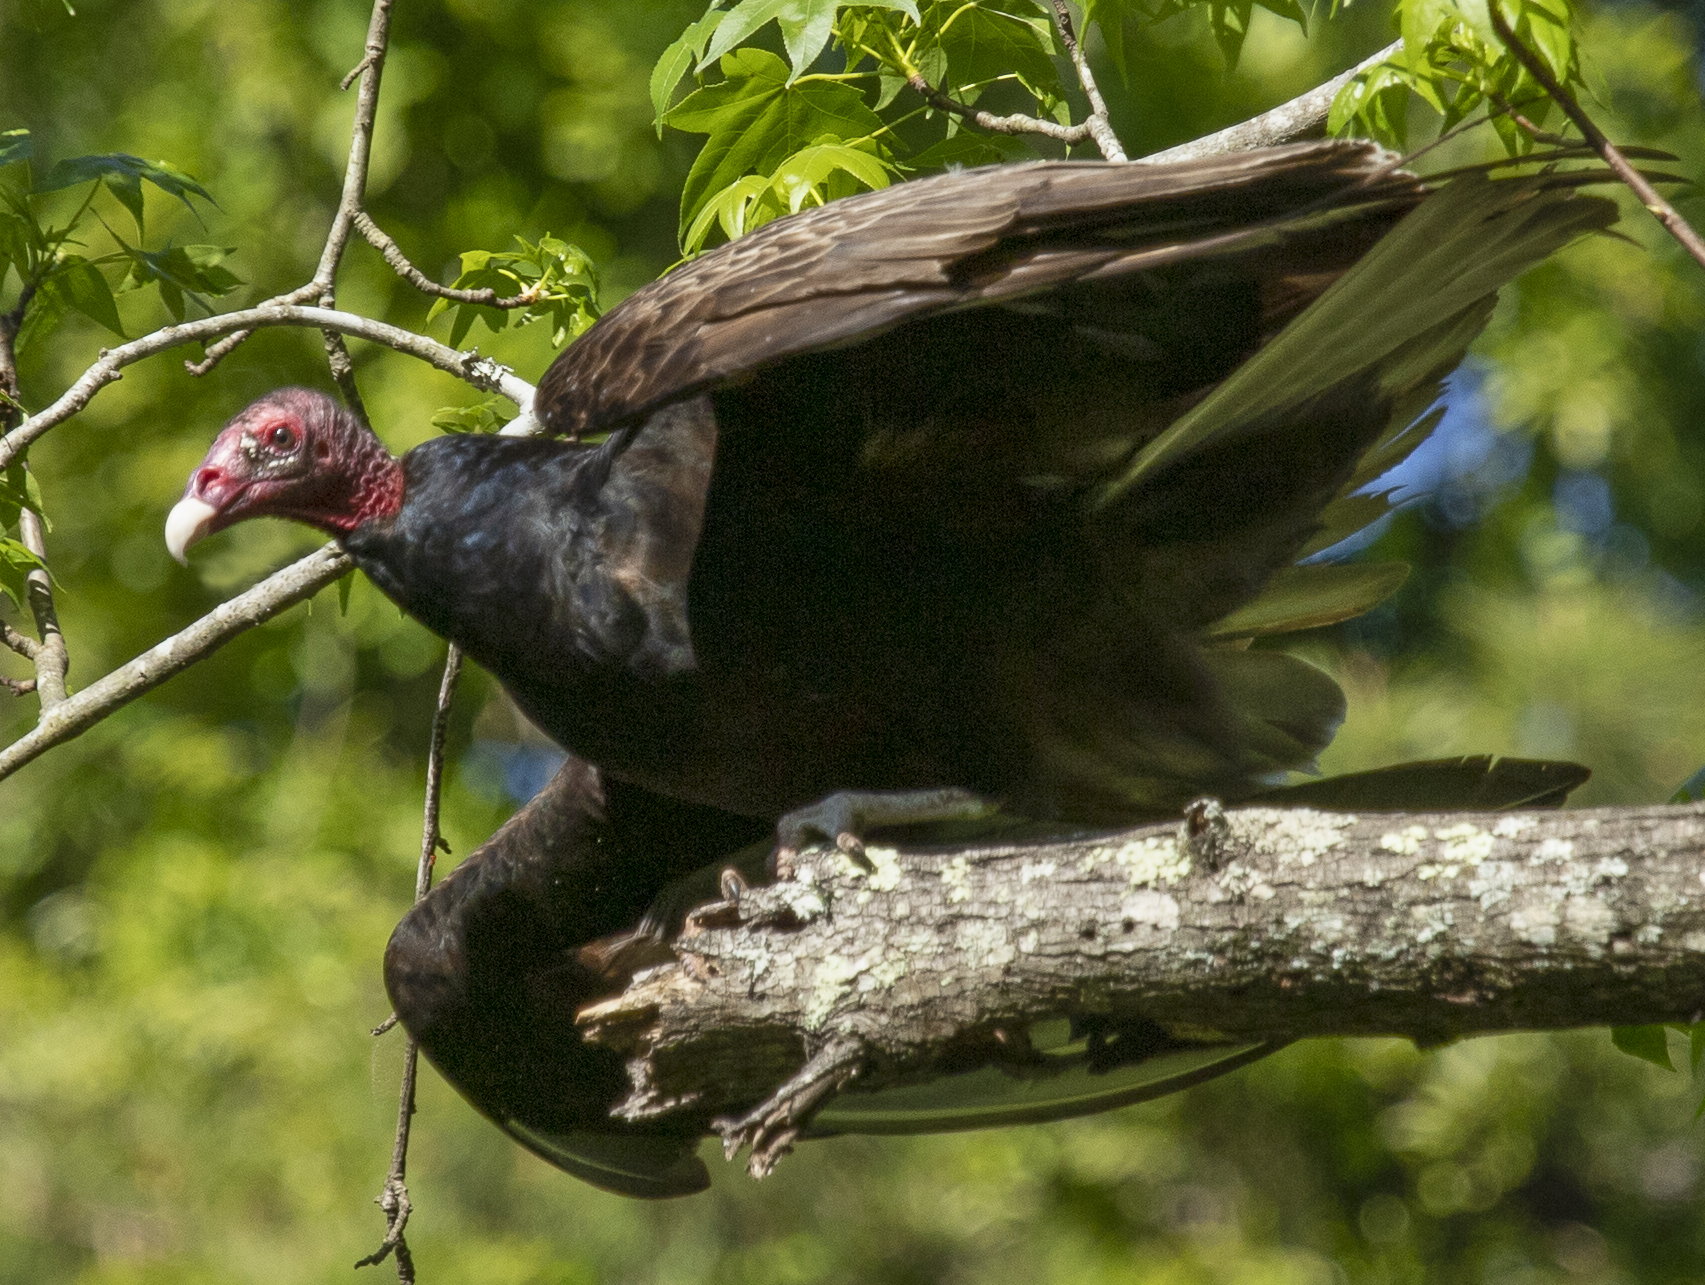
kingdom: Animalia
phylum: Chordata
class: Aves
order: Accipitriformes
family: Cathartidae
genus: Cathartes
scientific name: Cathartes aura
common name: Turkey vulture
